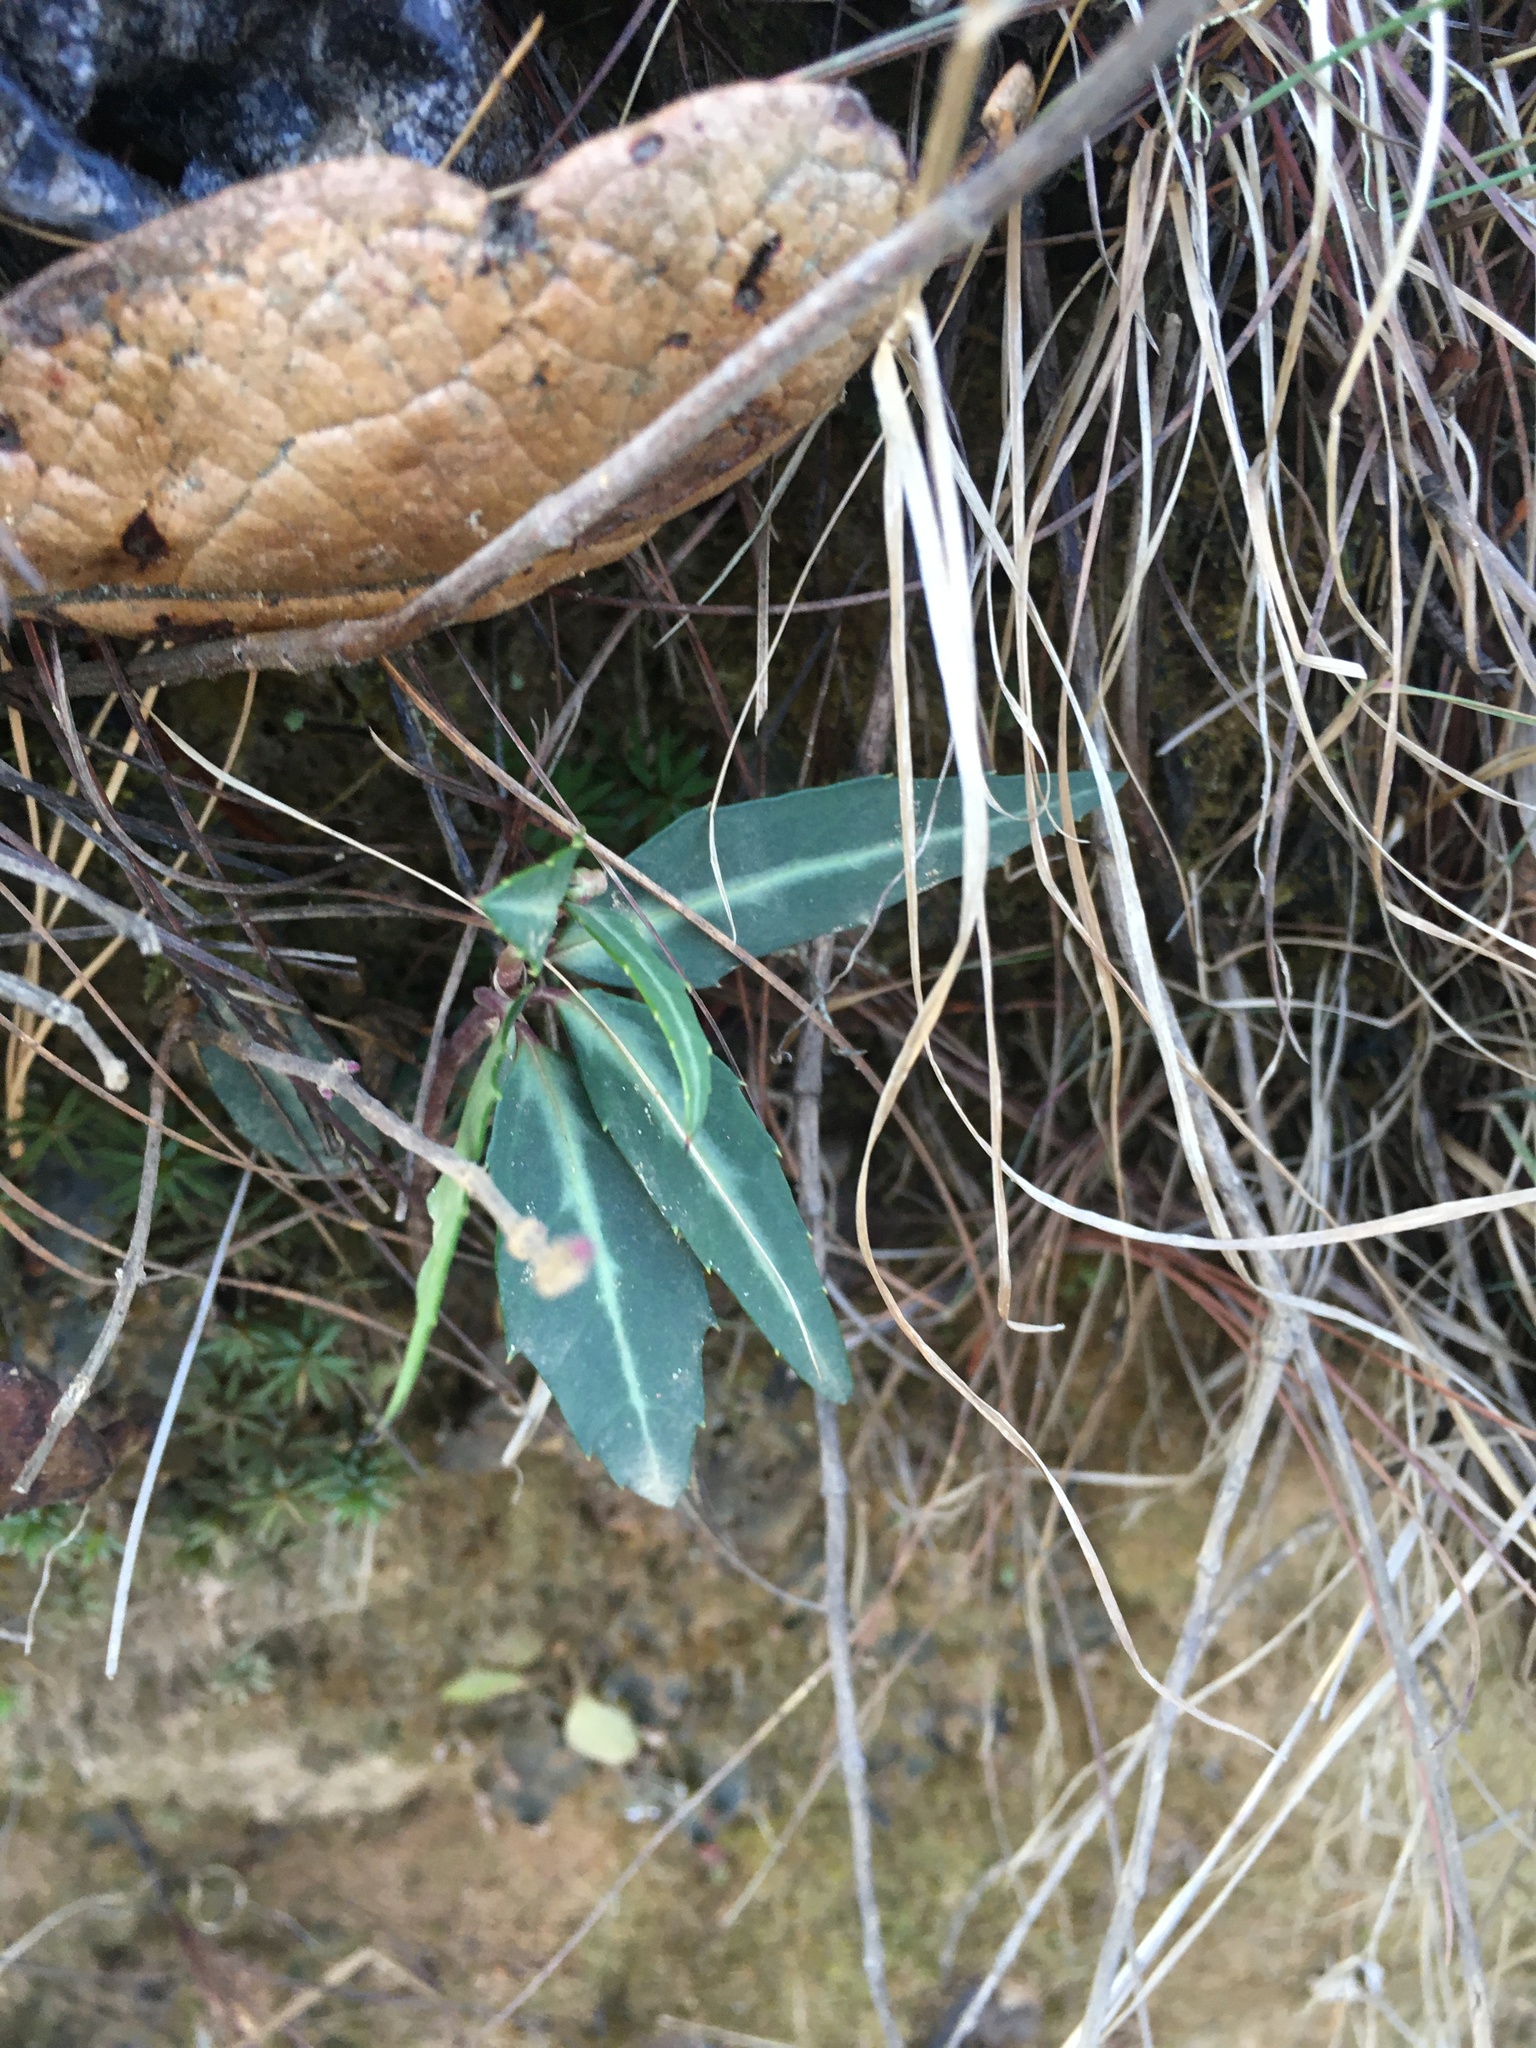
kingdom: Plantae
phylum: Tracheophyta
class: Magnoliopsida
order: Ericales
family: Ericaceae
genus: Chimaphila
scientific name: Chimaphila maculata
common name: Spotted pipsissewa
